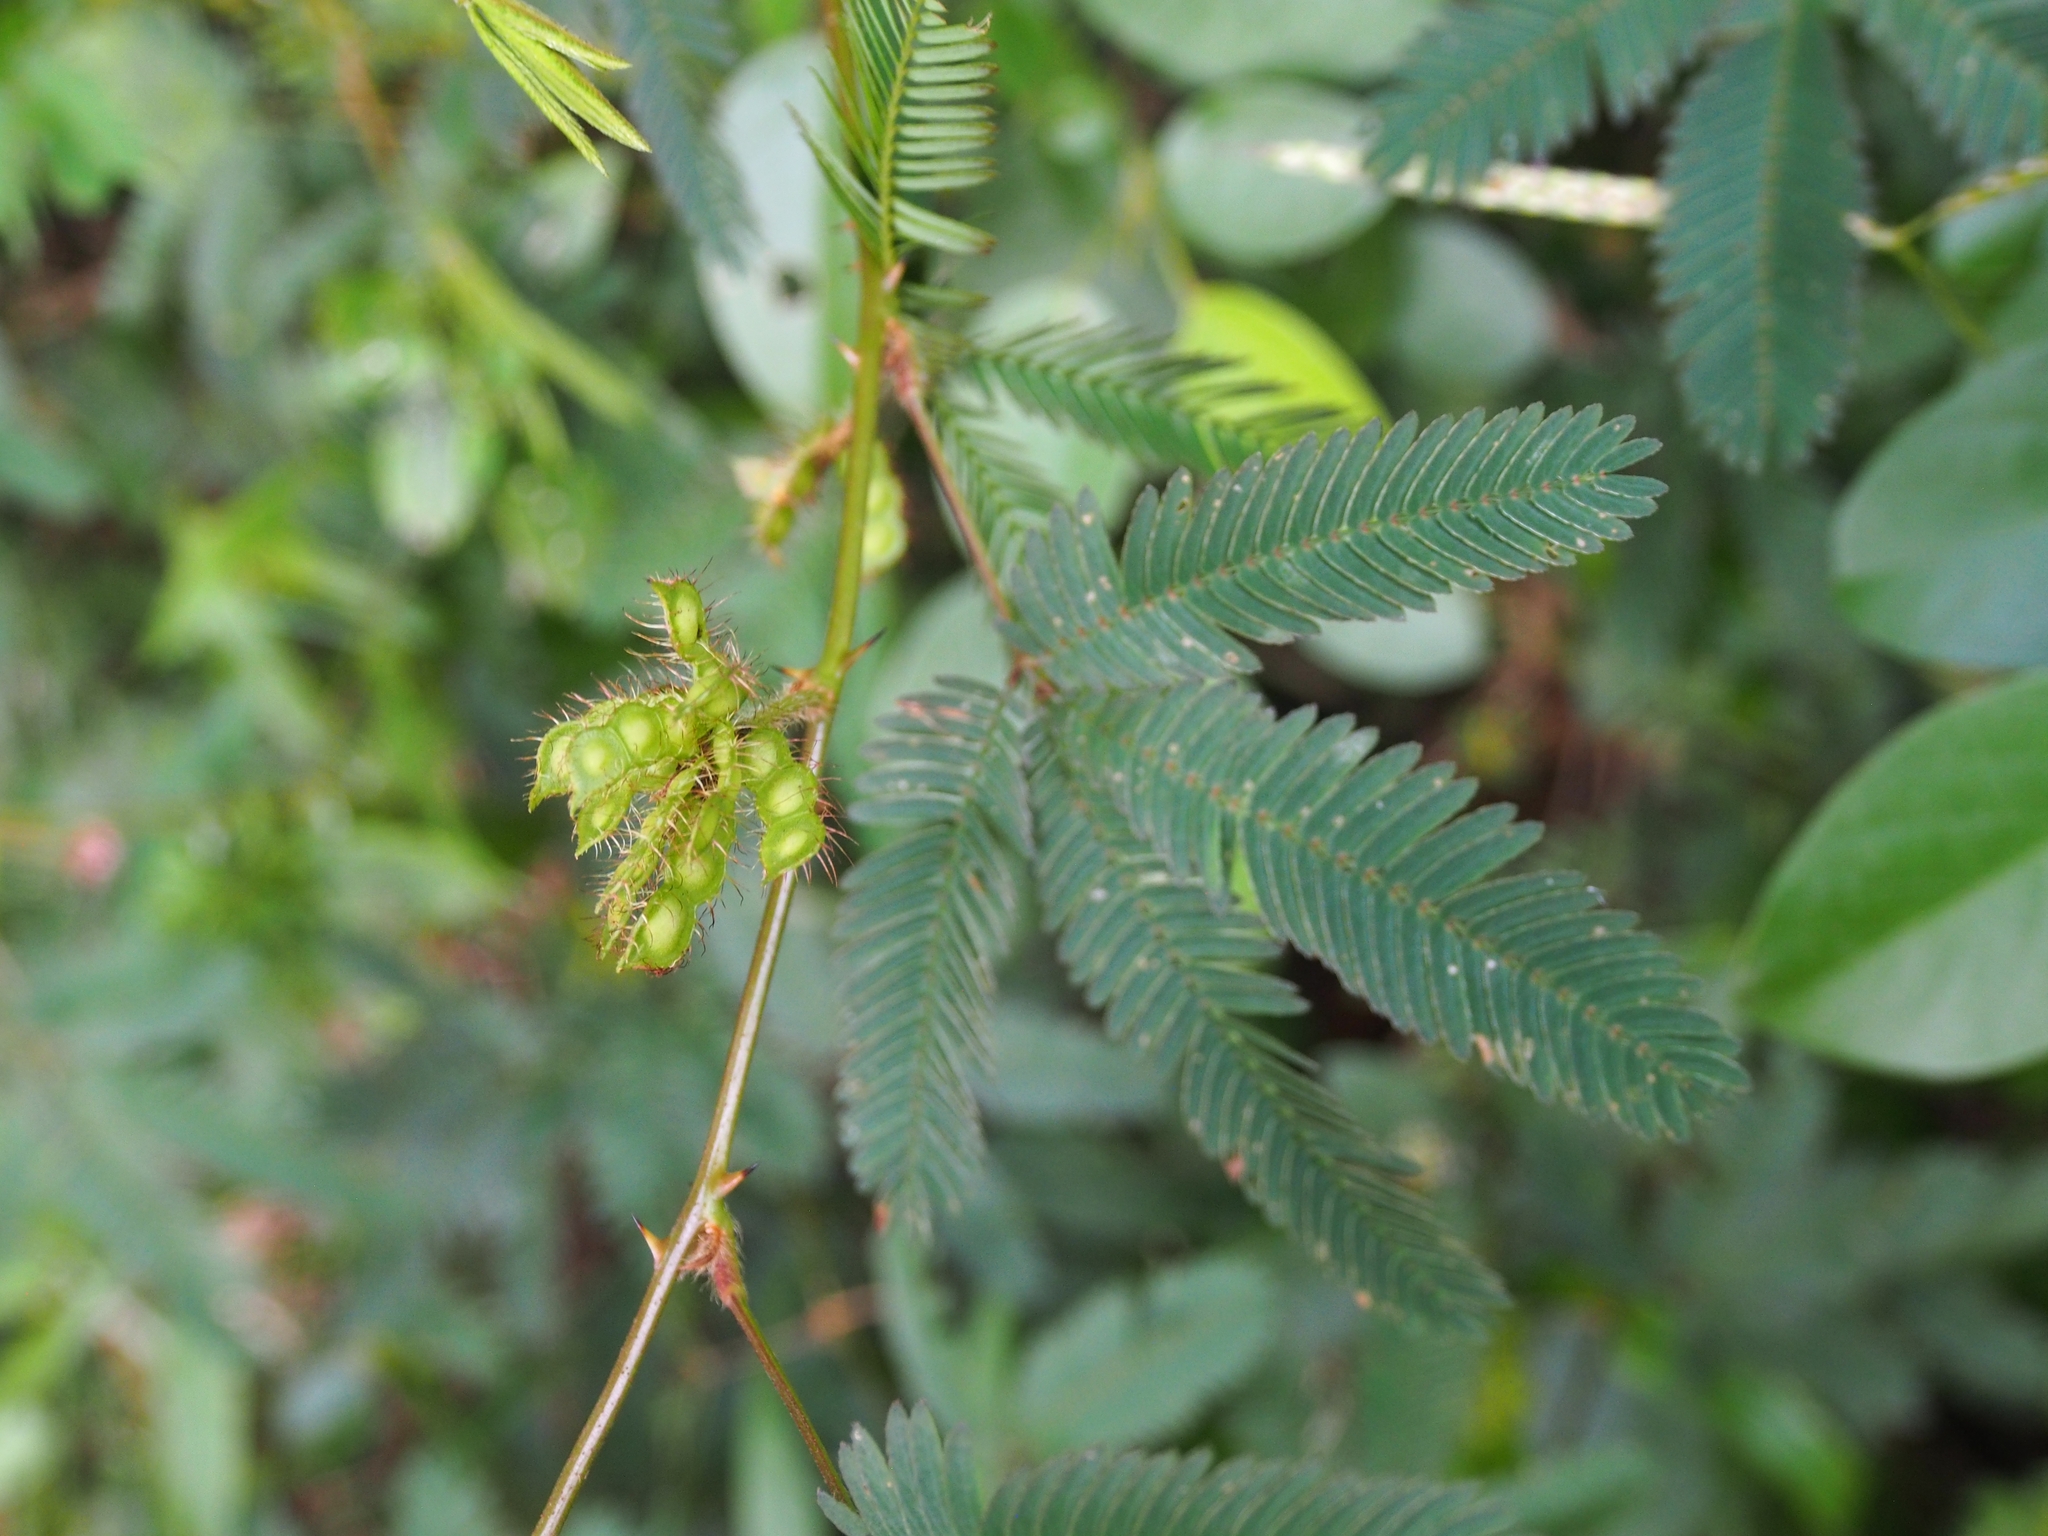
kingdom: Plantae
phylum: Tracheophyta
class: Magnoliopsida
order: Fabales
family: Fabaceae
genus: Mimosa
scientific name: Mimosa pudica
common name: Sensitive plant
